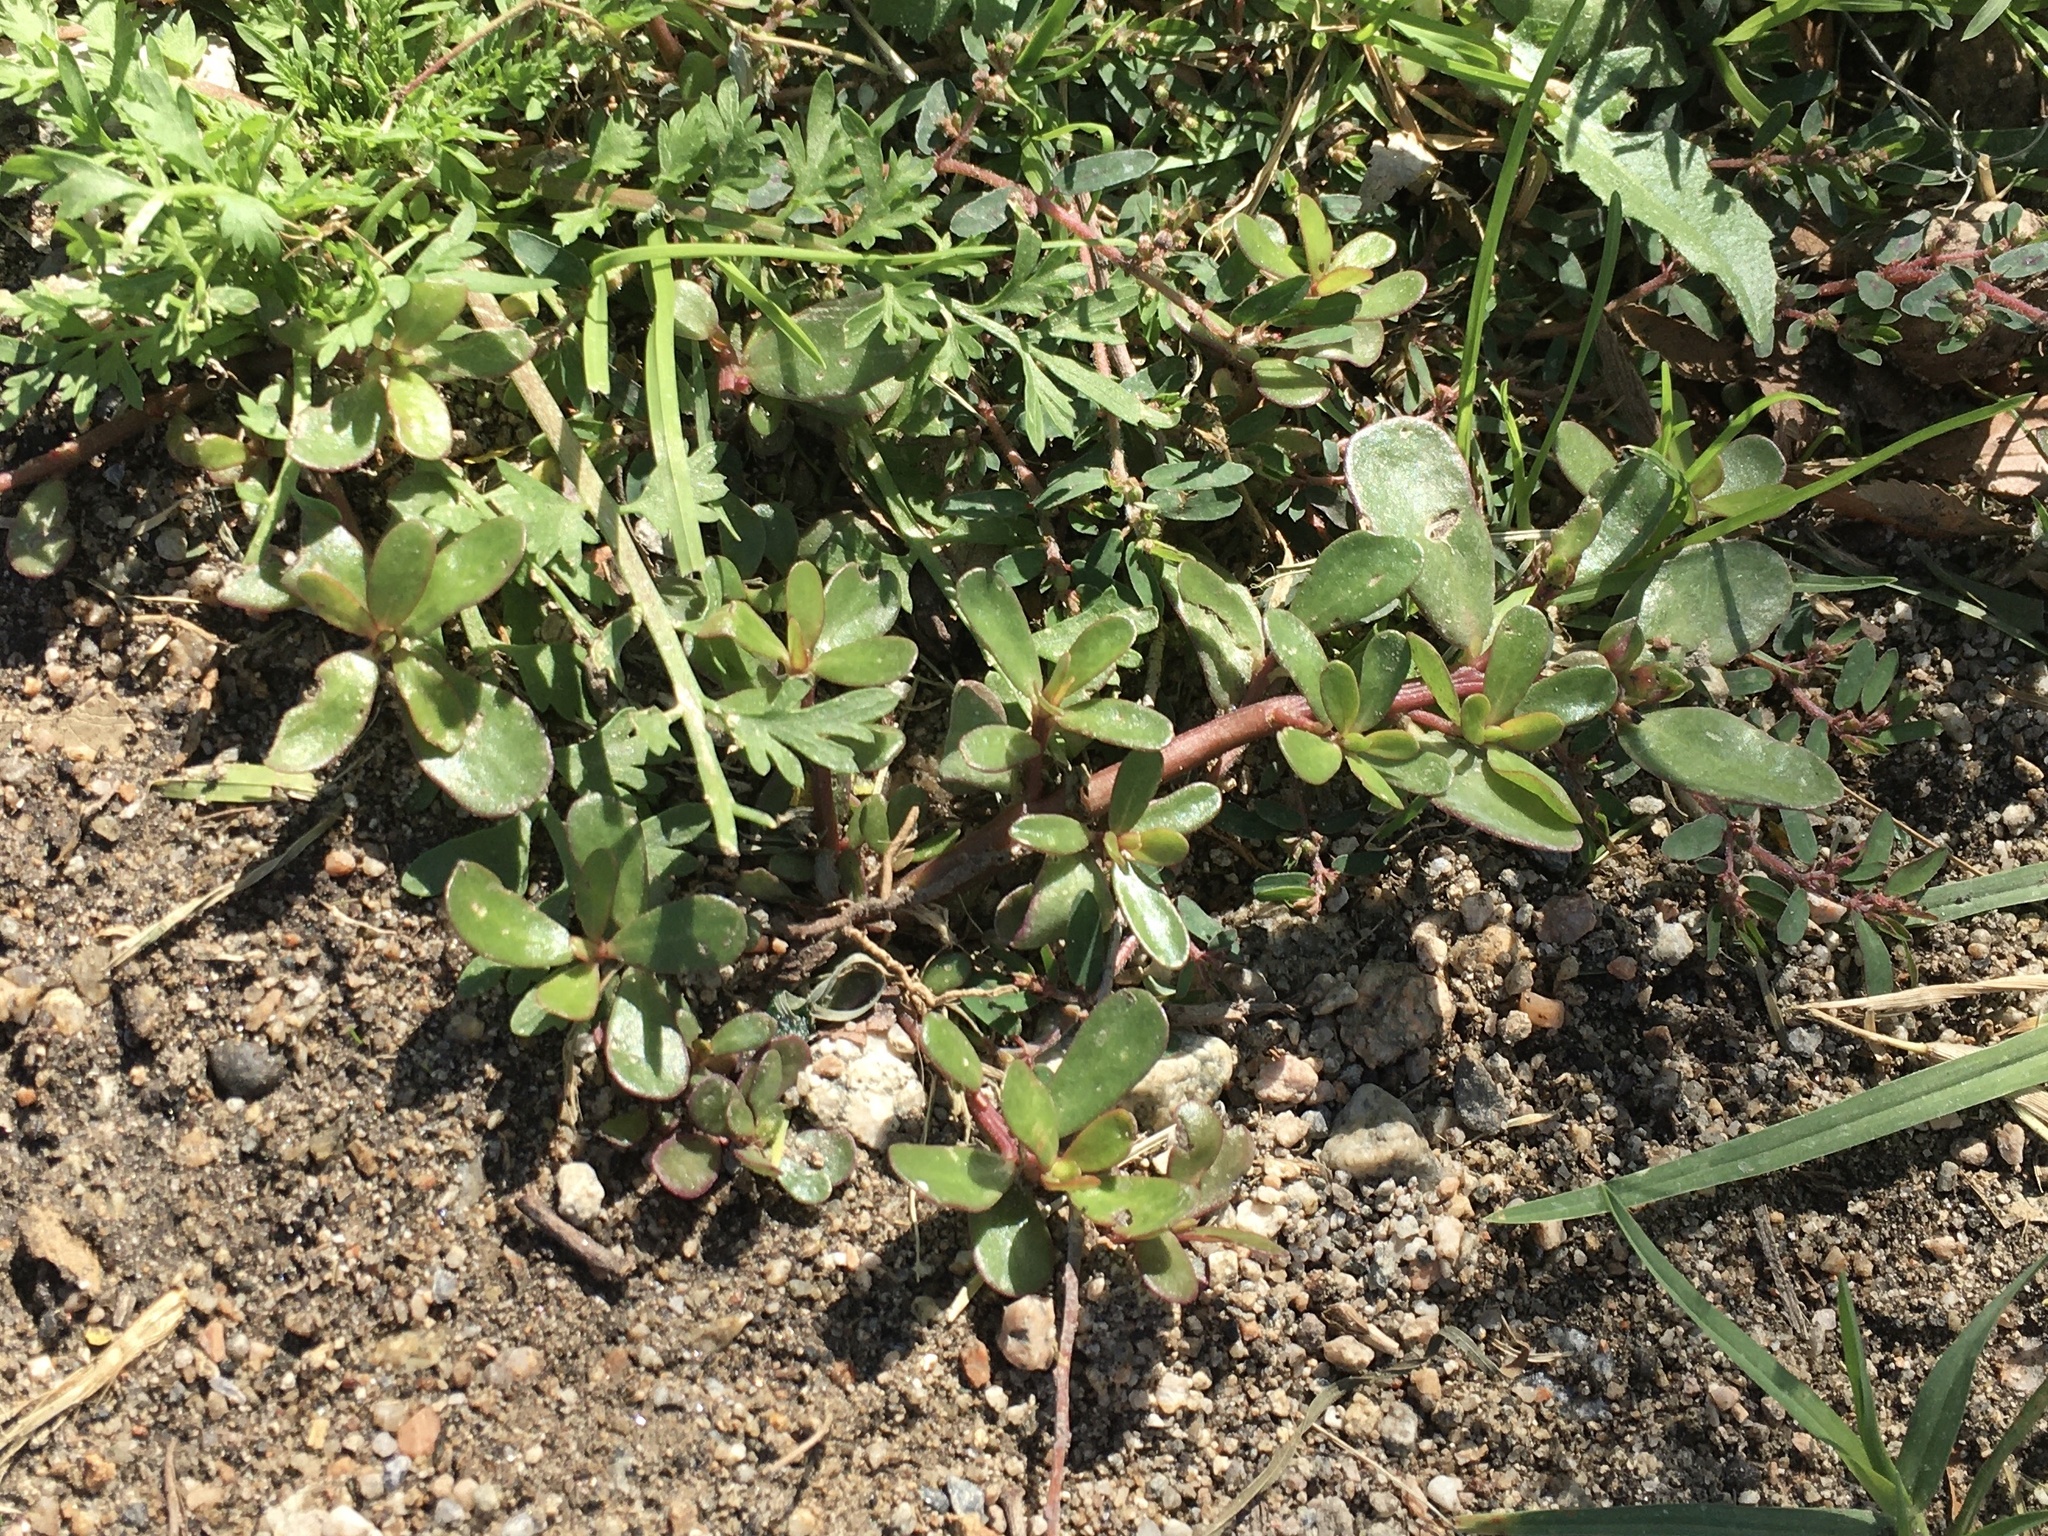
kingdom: Plantae
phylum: Tracheophyta
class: Magnoliopsida
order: Caryophyllales
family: Portulacaceae
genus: Portulaca
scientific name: Portulaca oleracea
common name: Common purslane
